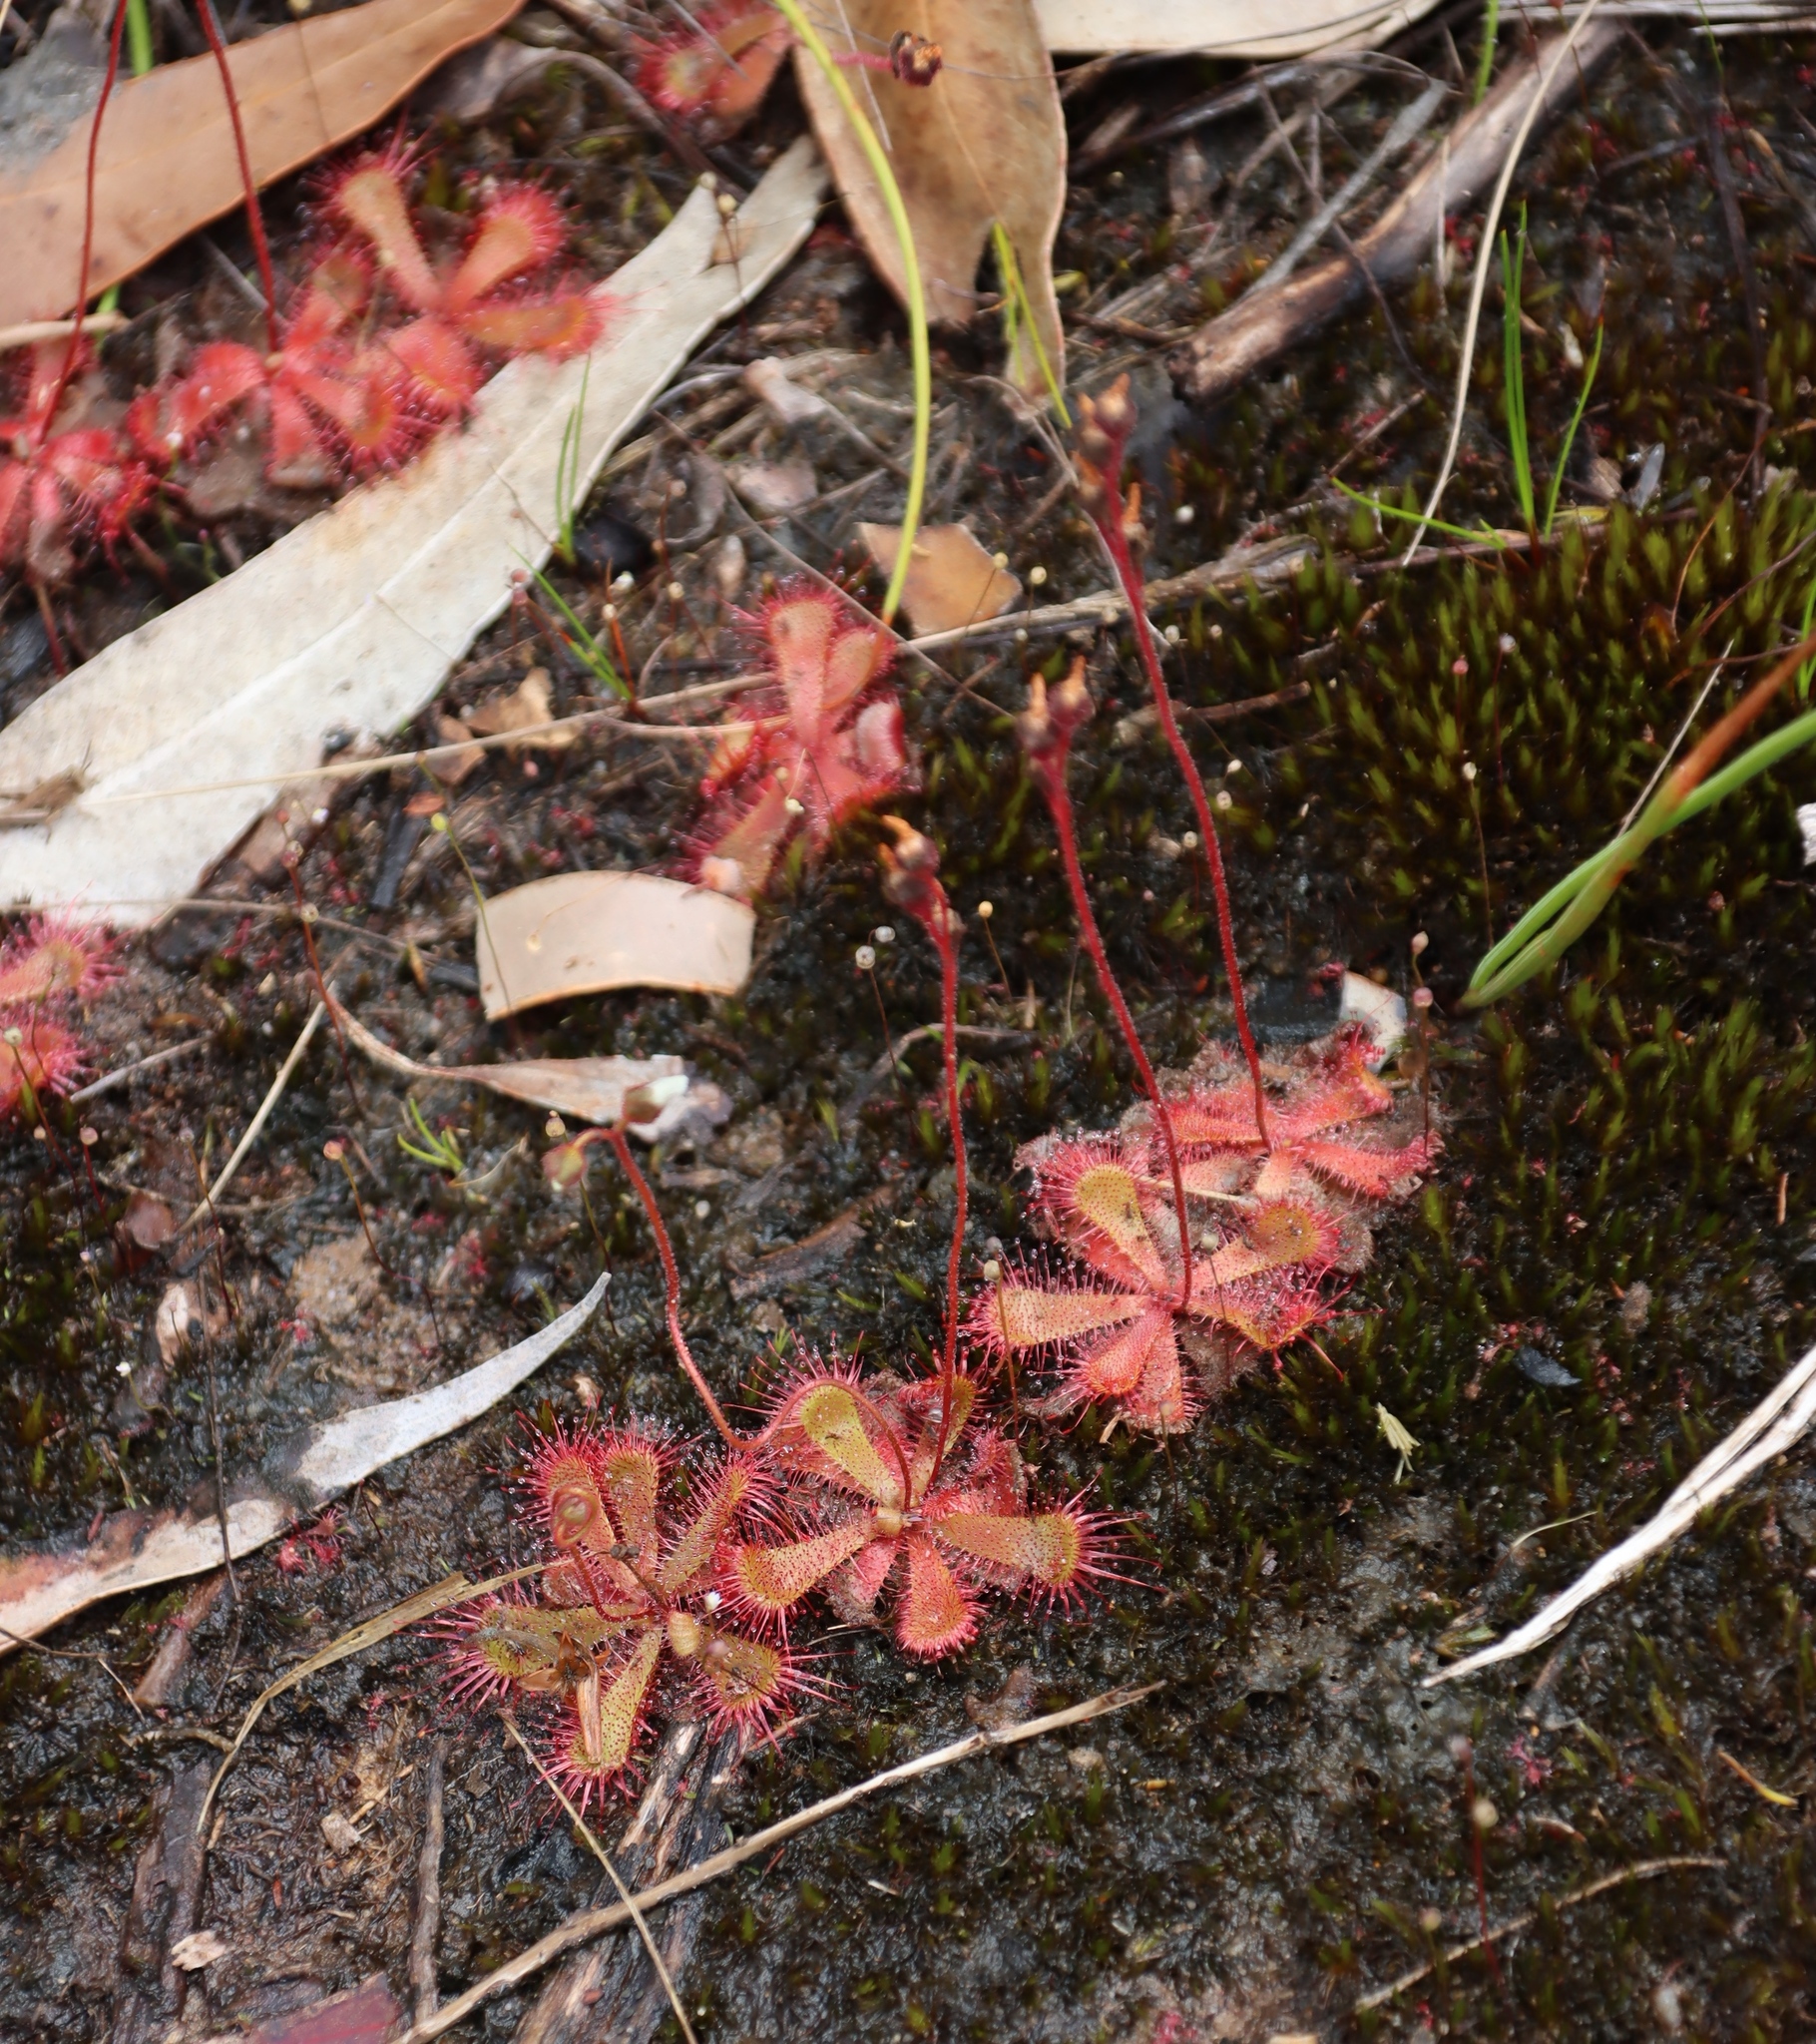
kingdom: Plantae
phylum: Tracheophyta
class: Magnoliopsida
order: Caryophyllales
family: Droseraceae
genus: Drosera
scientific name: Drosera trinervia
